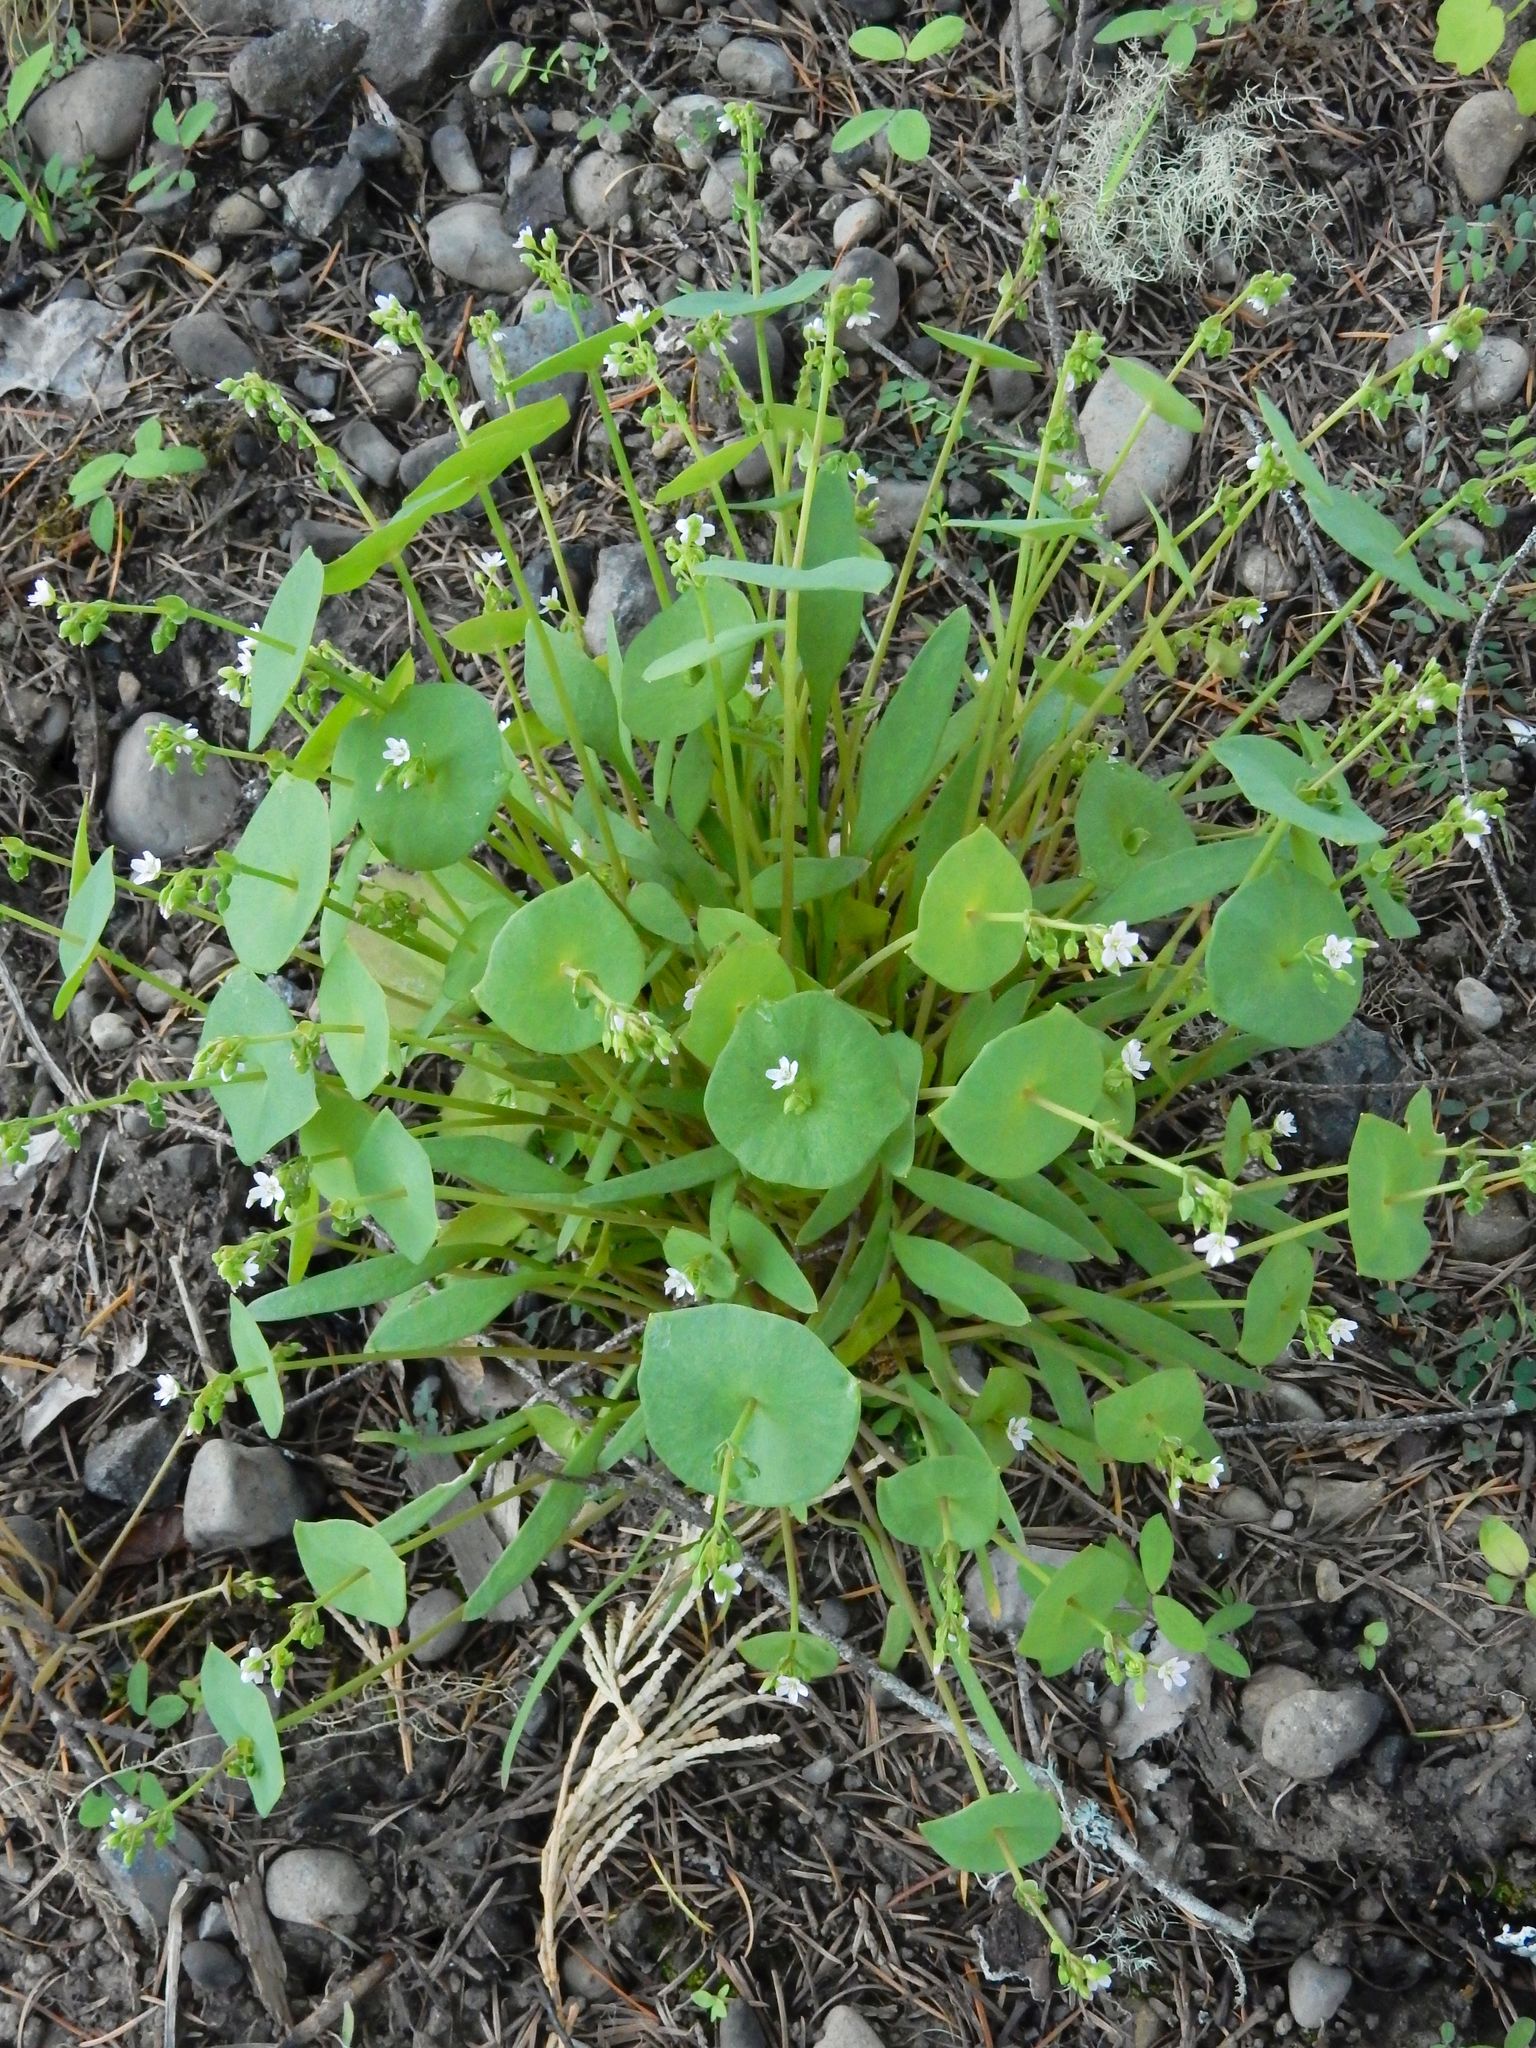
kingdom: Plantae
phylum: Tracheophyta
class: Magnoliopsida
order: Caryophyllales
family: Montiaceae
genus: Claytonia
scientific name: Claytonia parviflora
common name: Indian-lettuce
